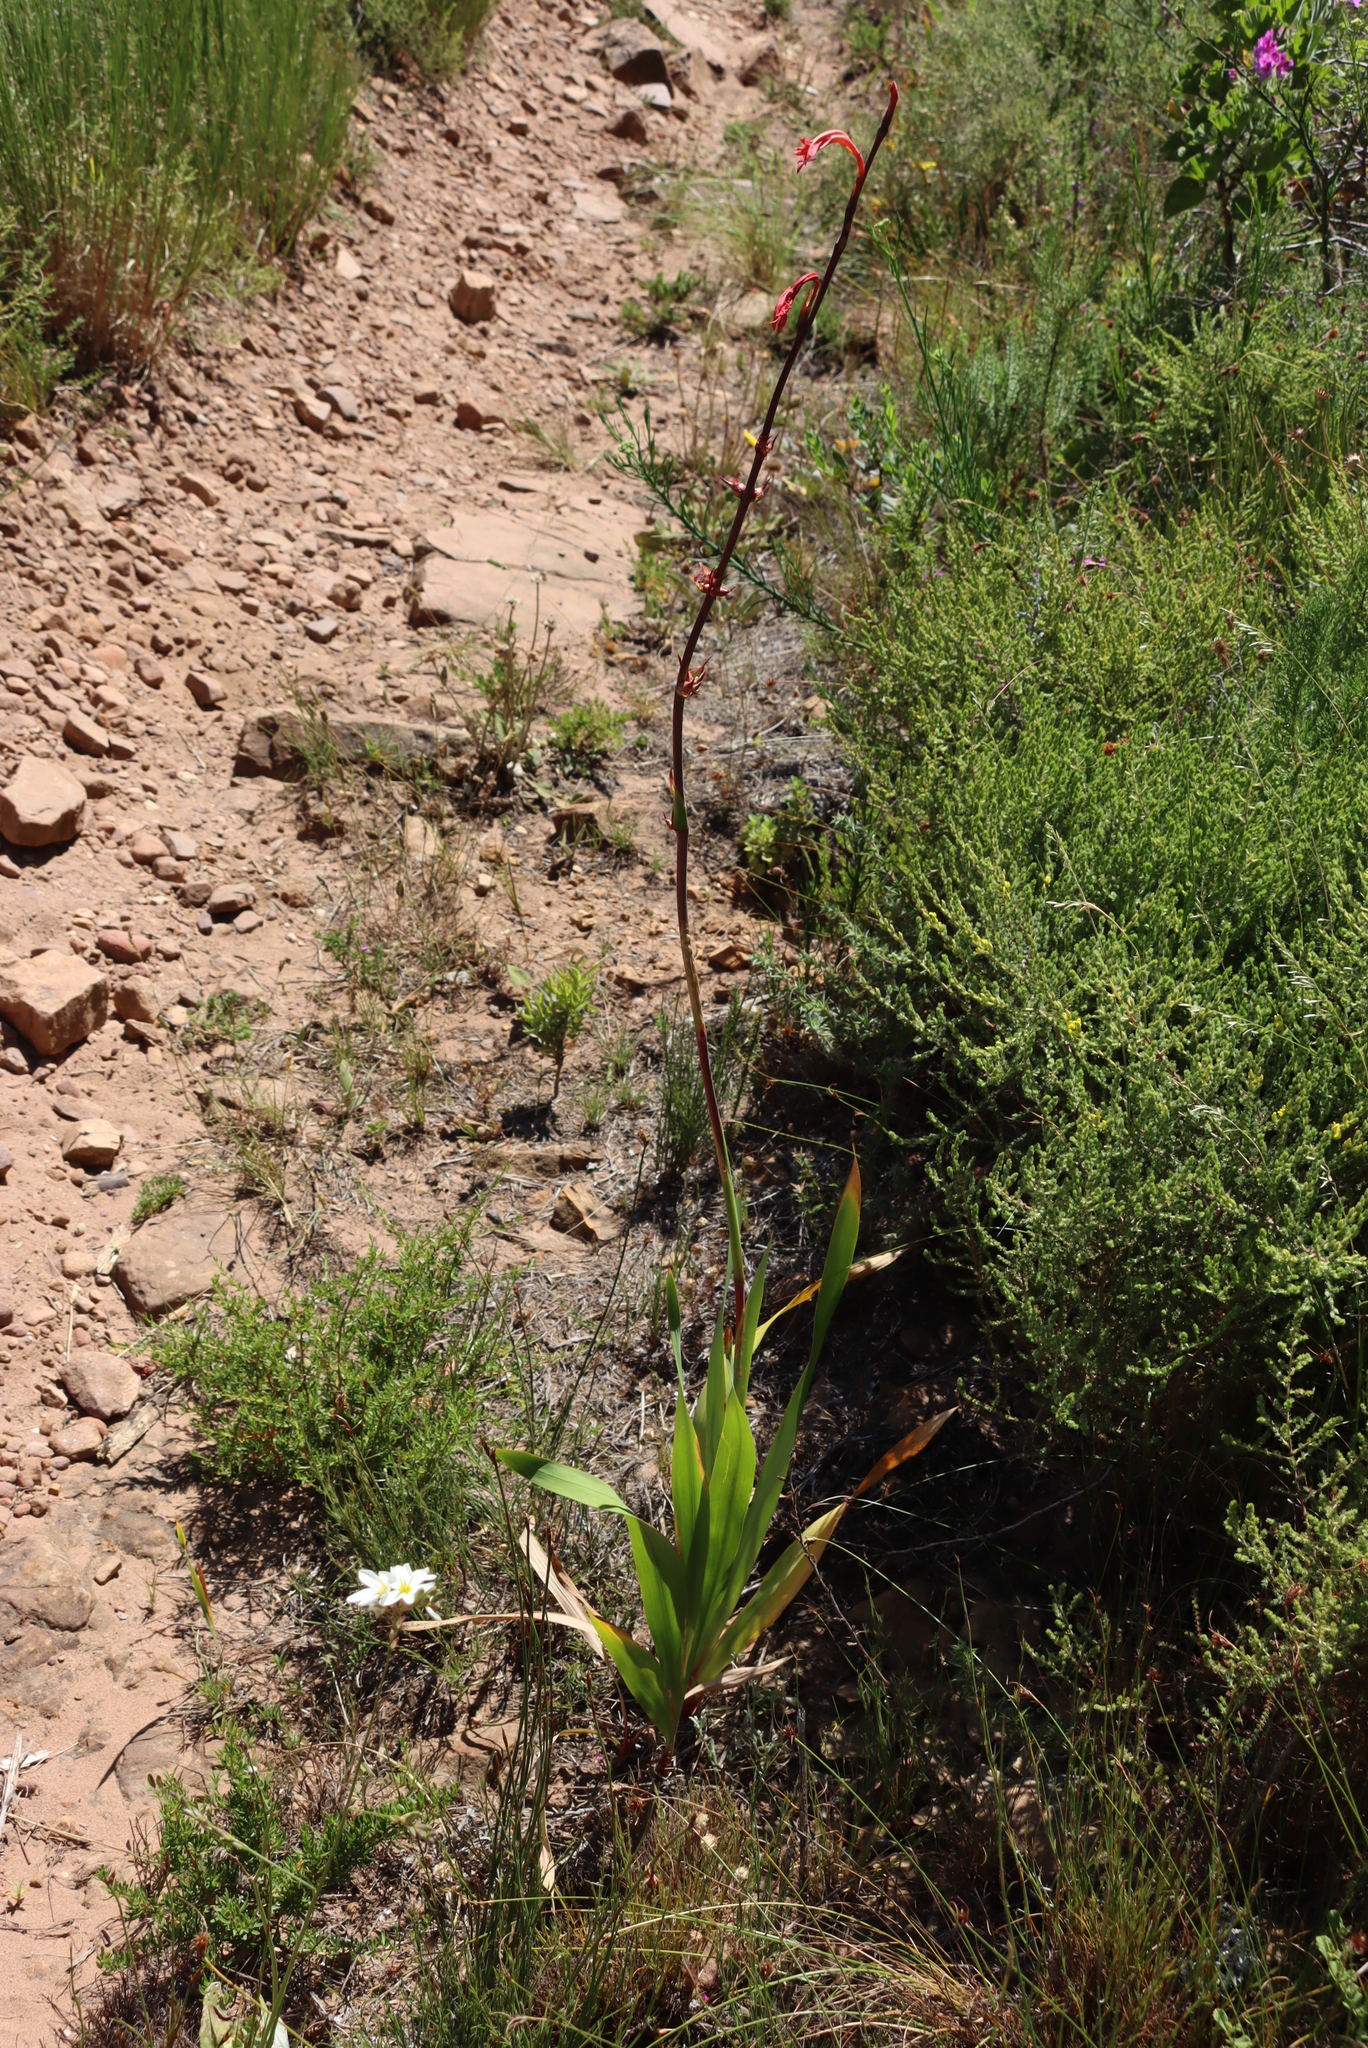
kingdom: Plantae
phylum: Tracheophyta
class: Liliopsida
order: Asparagales
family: Iridaceae
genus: Watsonia
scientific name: Watsonia meriana
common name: Bulbil bugle-lily
